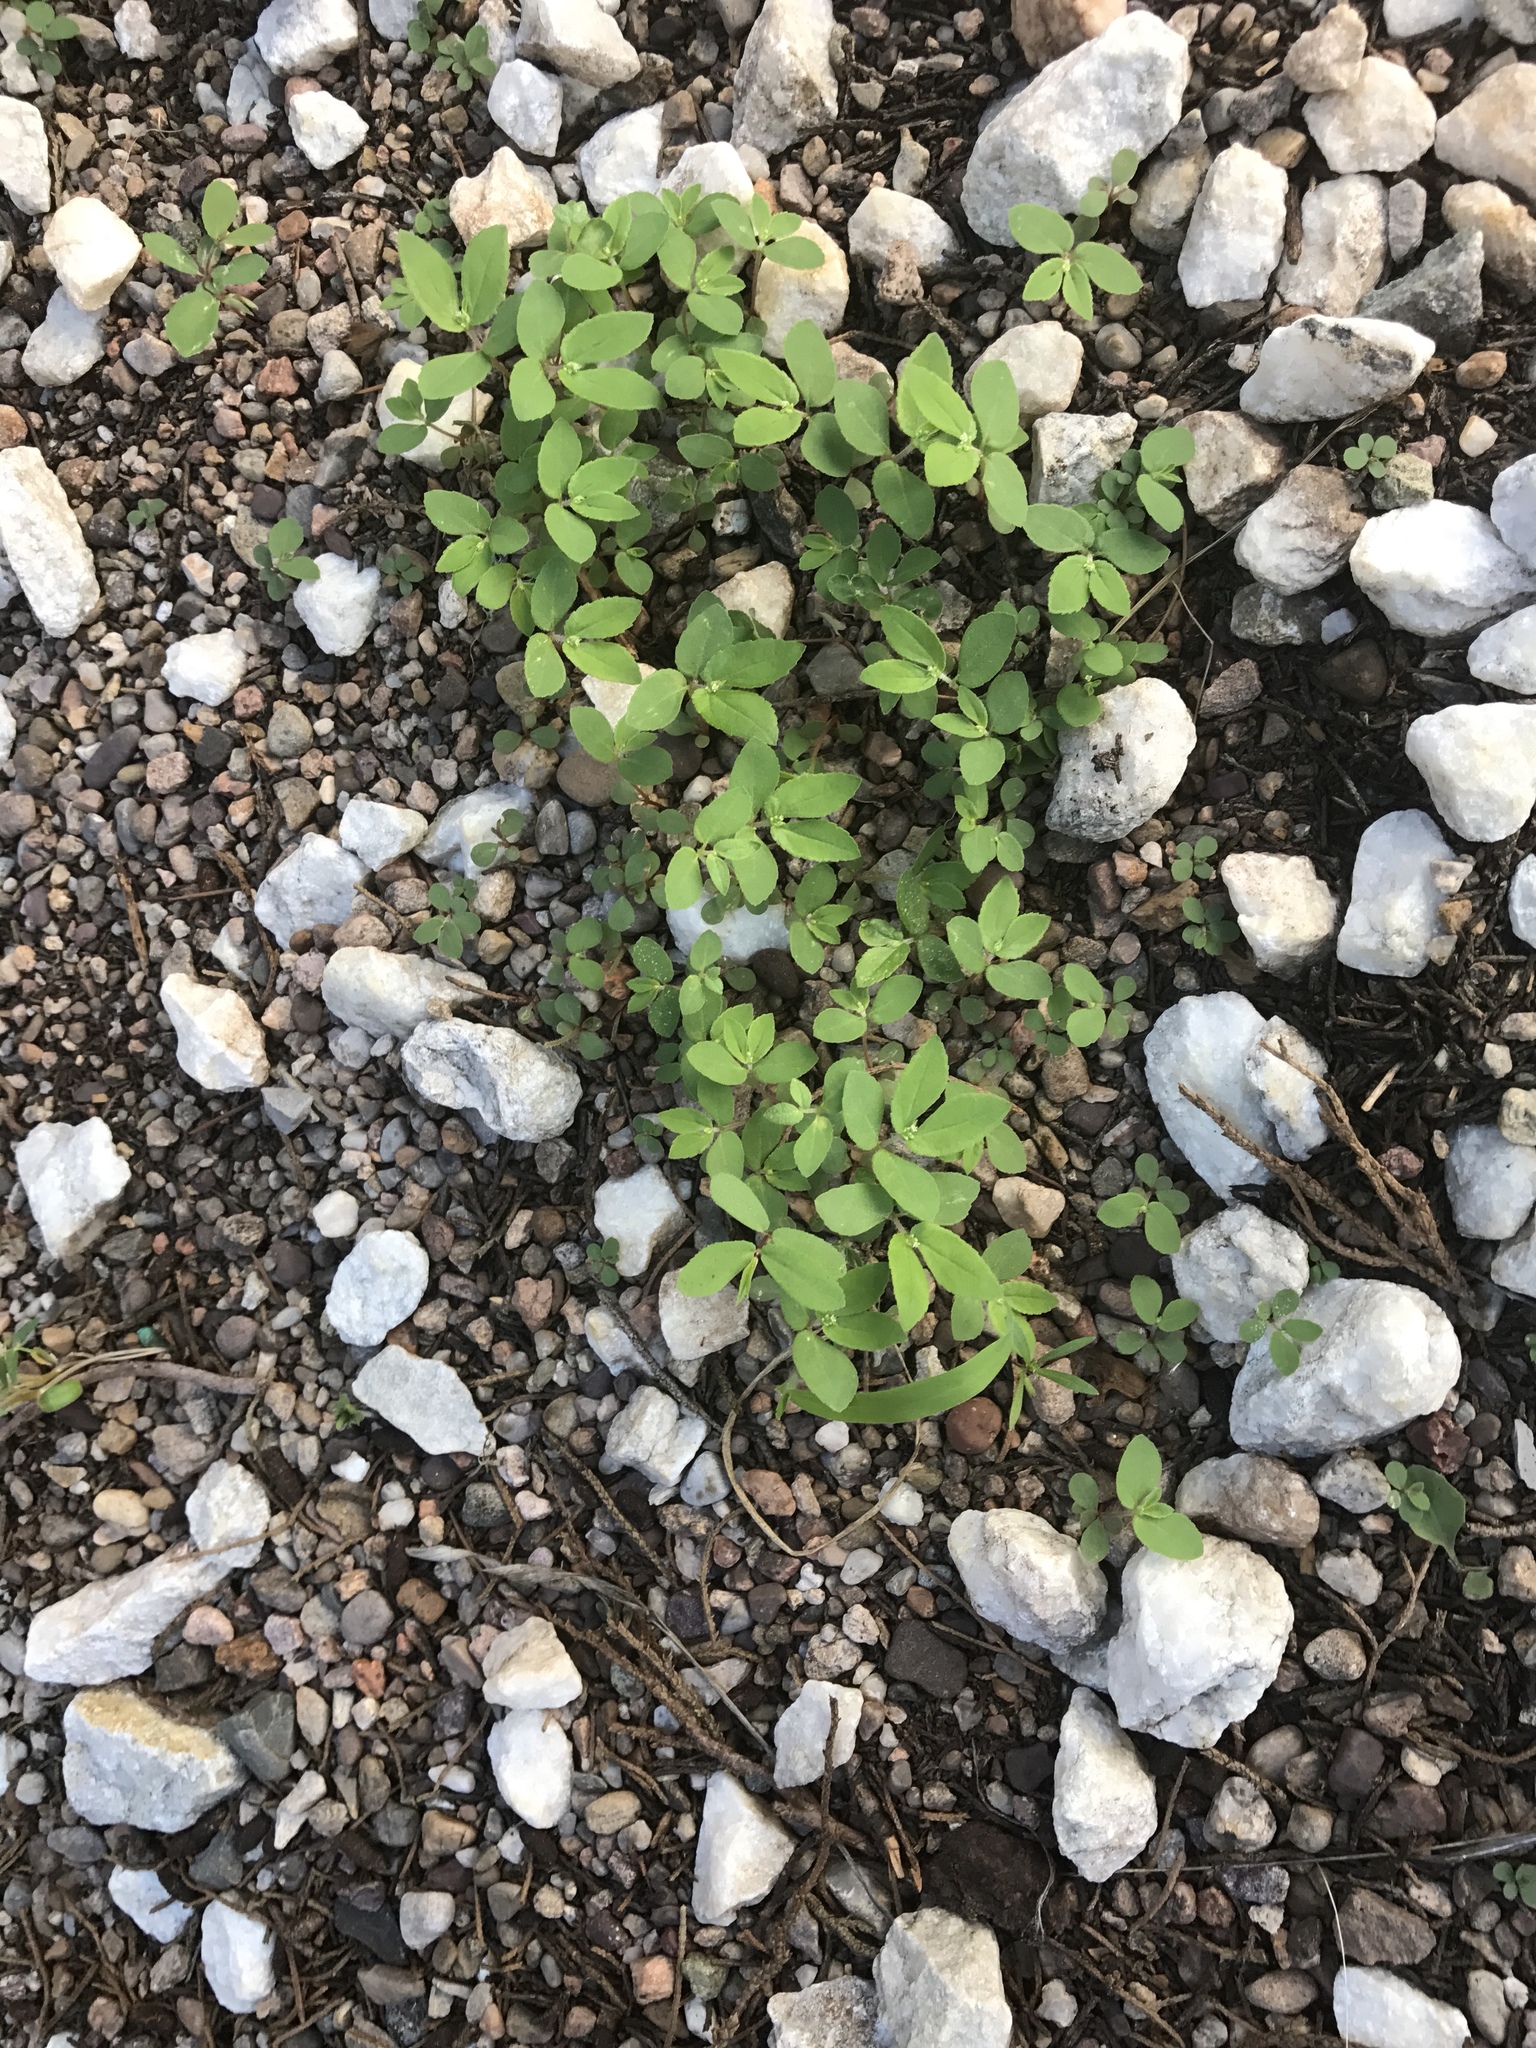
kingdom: Plantae
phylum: Tracheophyta
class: Magnoliopsida
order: Malpighiales
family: Euphorbiaceae
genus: Euphorbia
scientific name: Euphorbia hirta
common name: Pillpod sandmat
